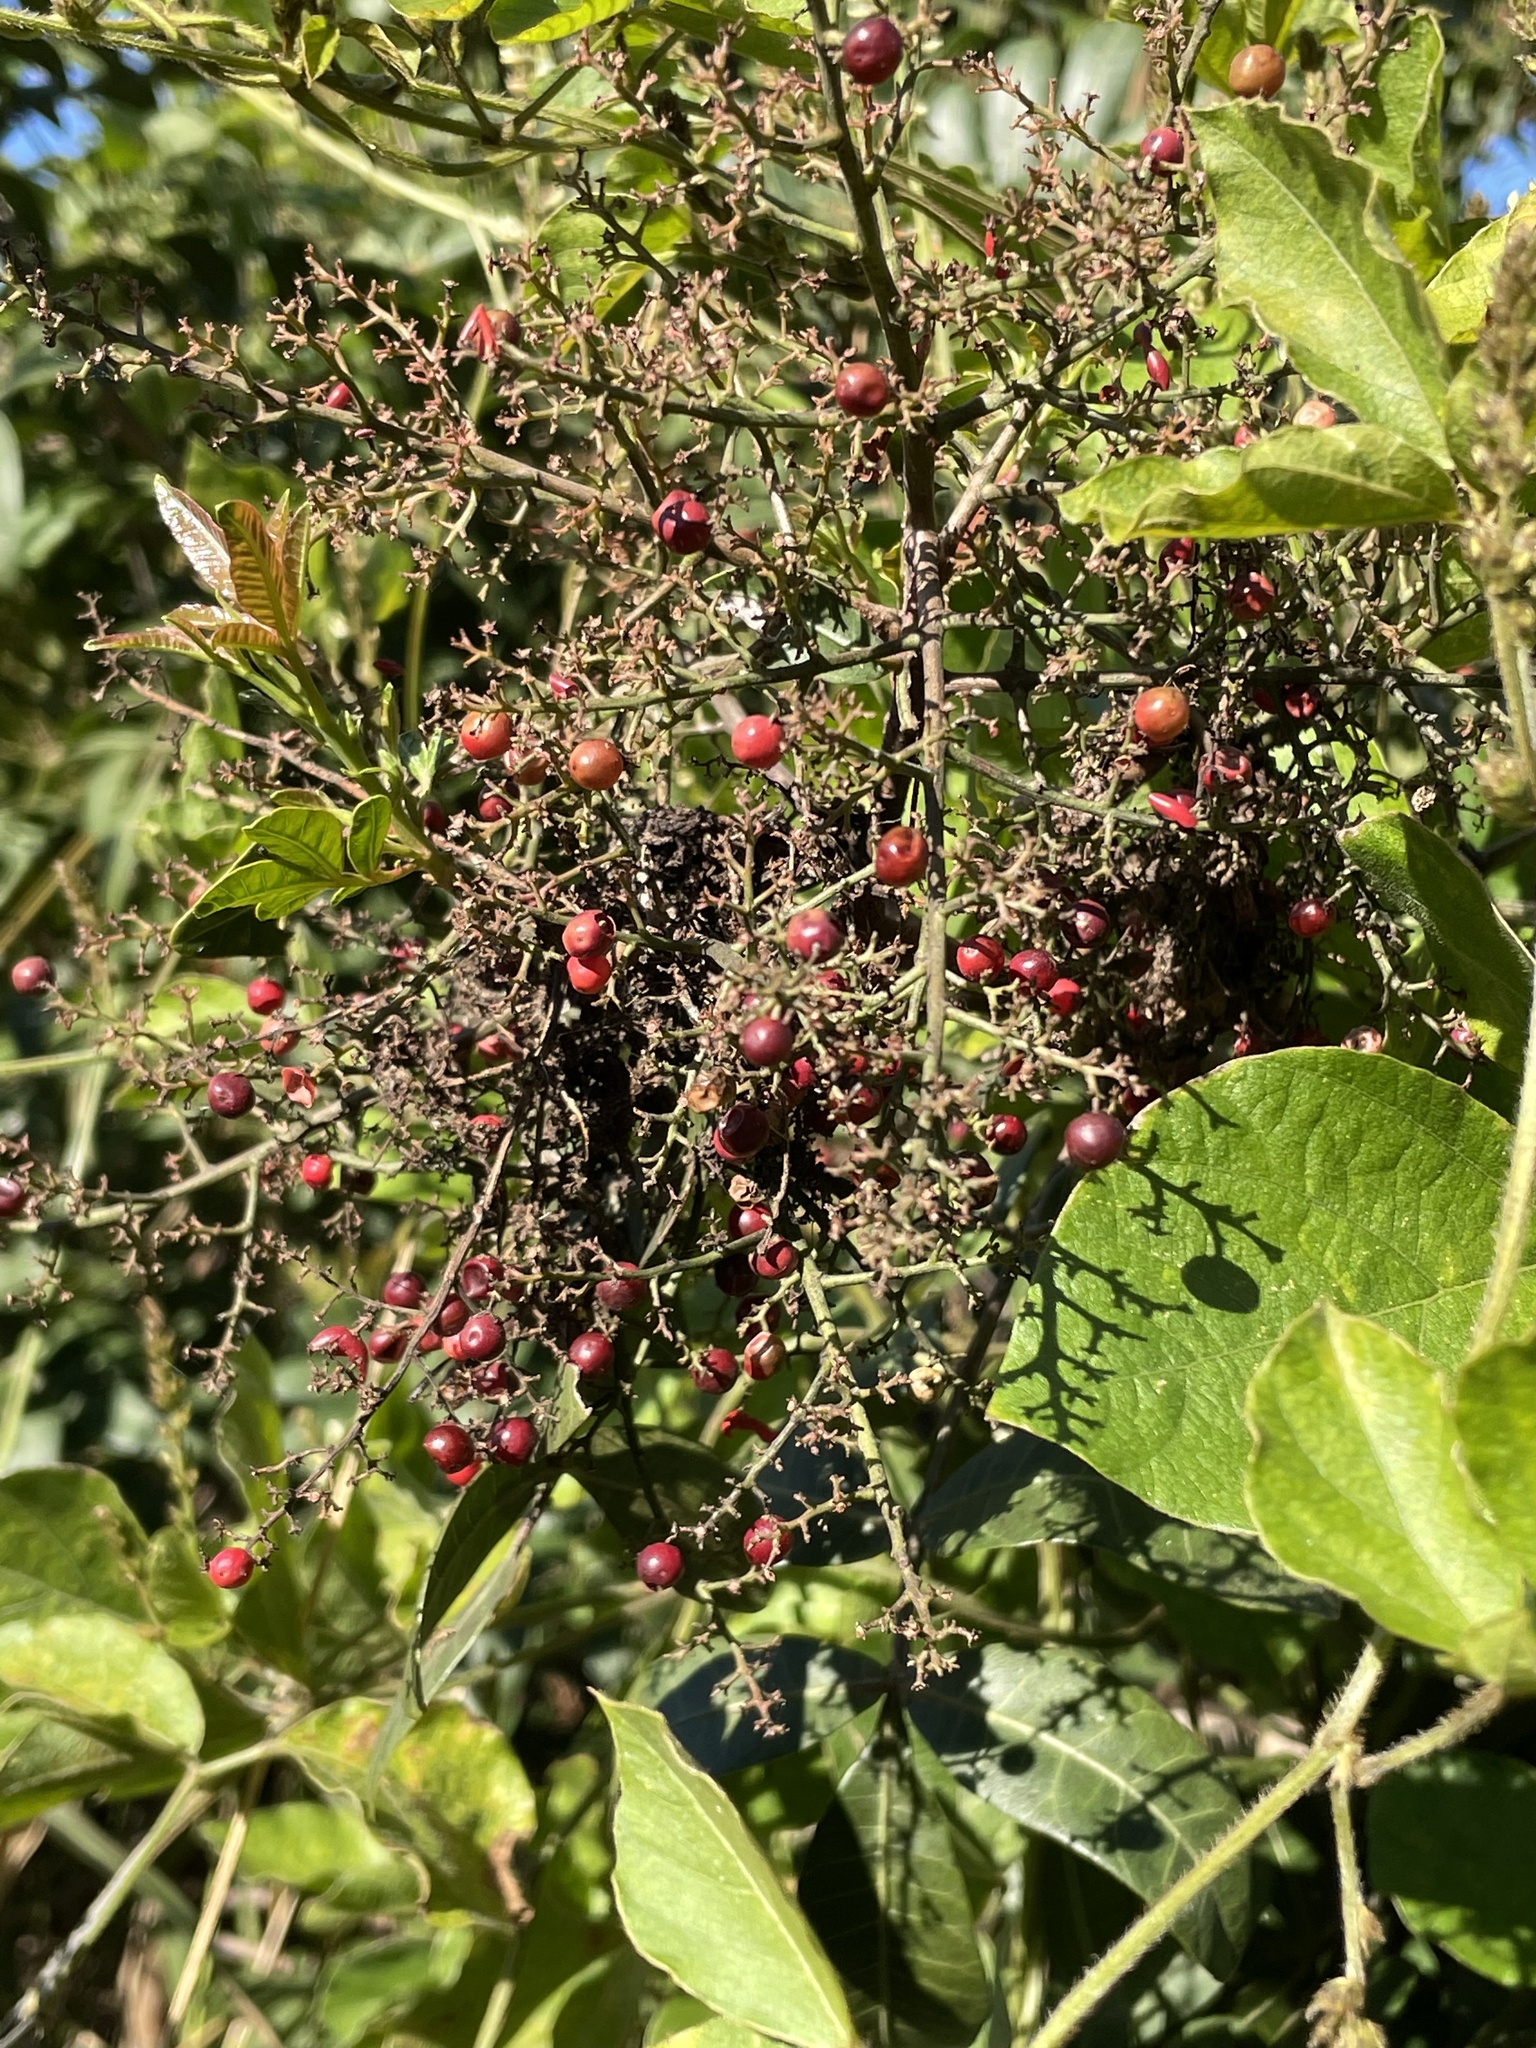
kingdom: Plantae
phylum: Tracheophyta
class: Magnoliopsida
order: Sapindales
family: Anacardiaceae
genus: Schinus
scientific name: Schinus terebinthifolia
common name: Brazilian peppertree
